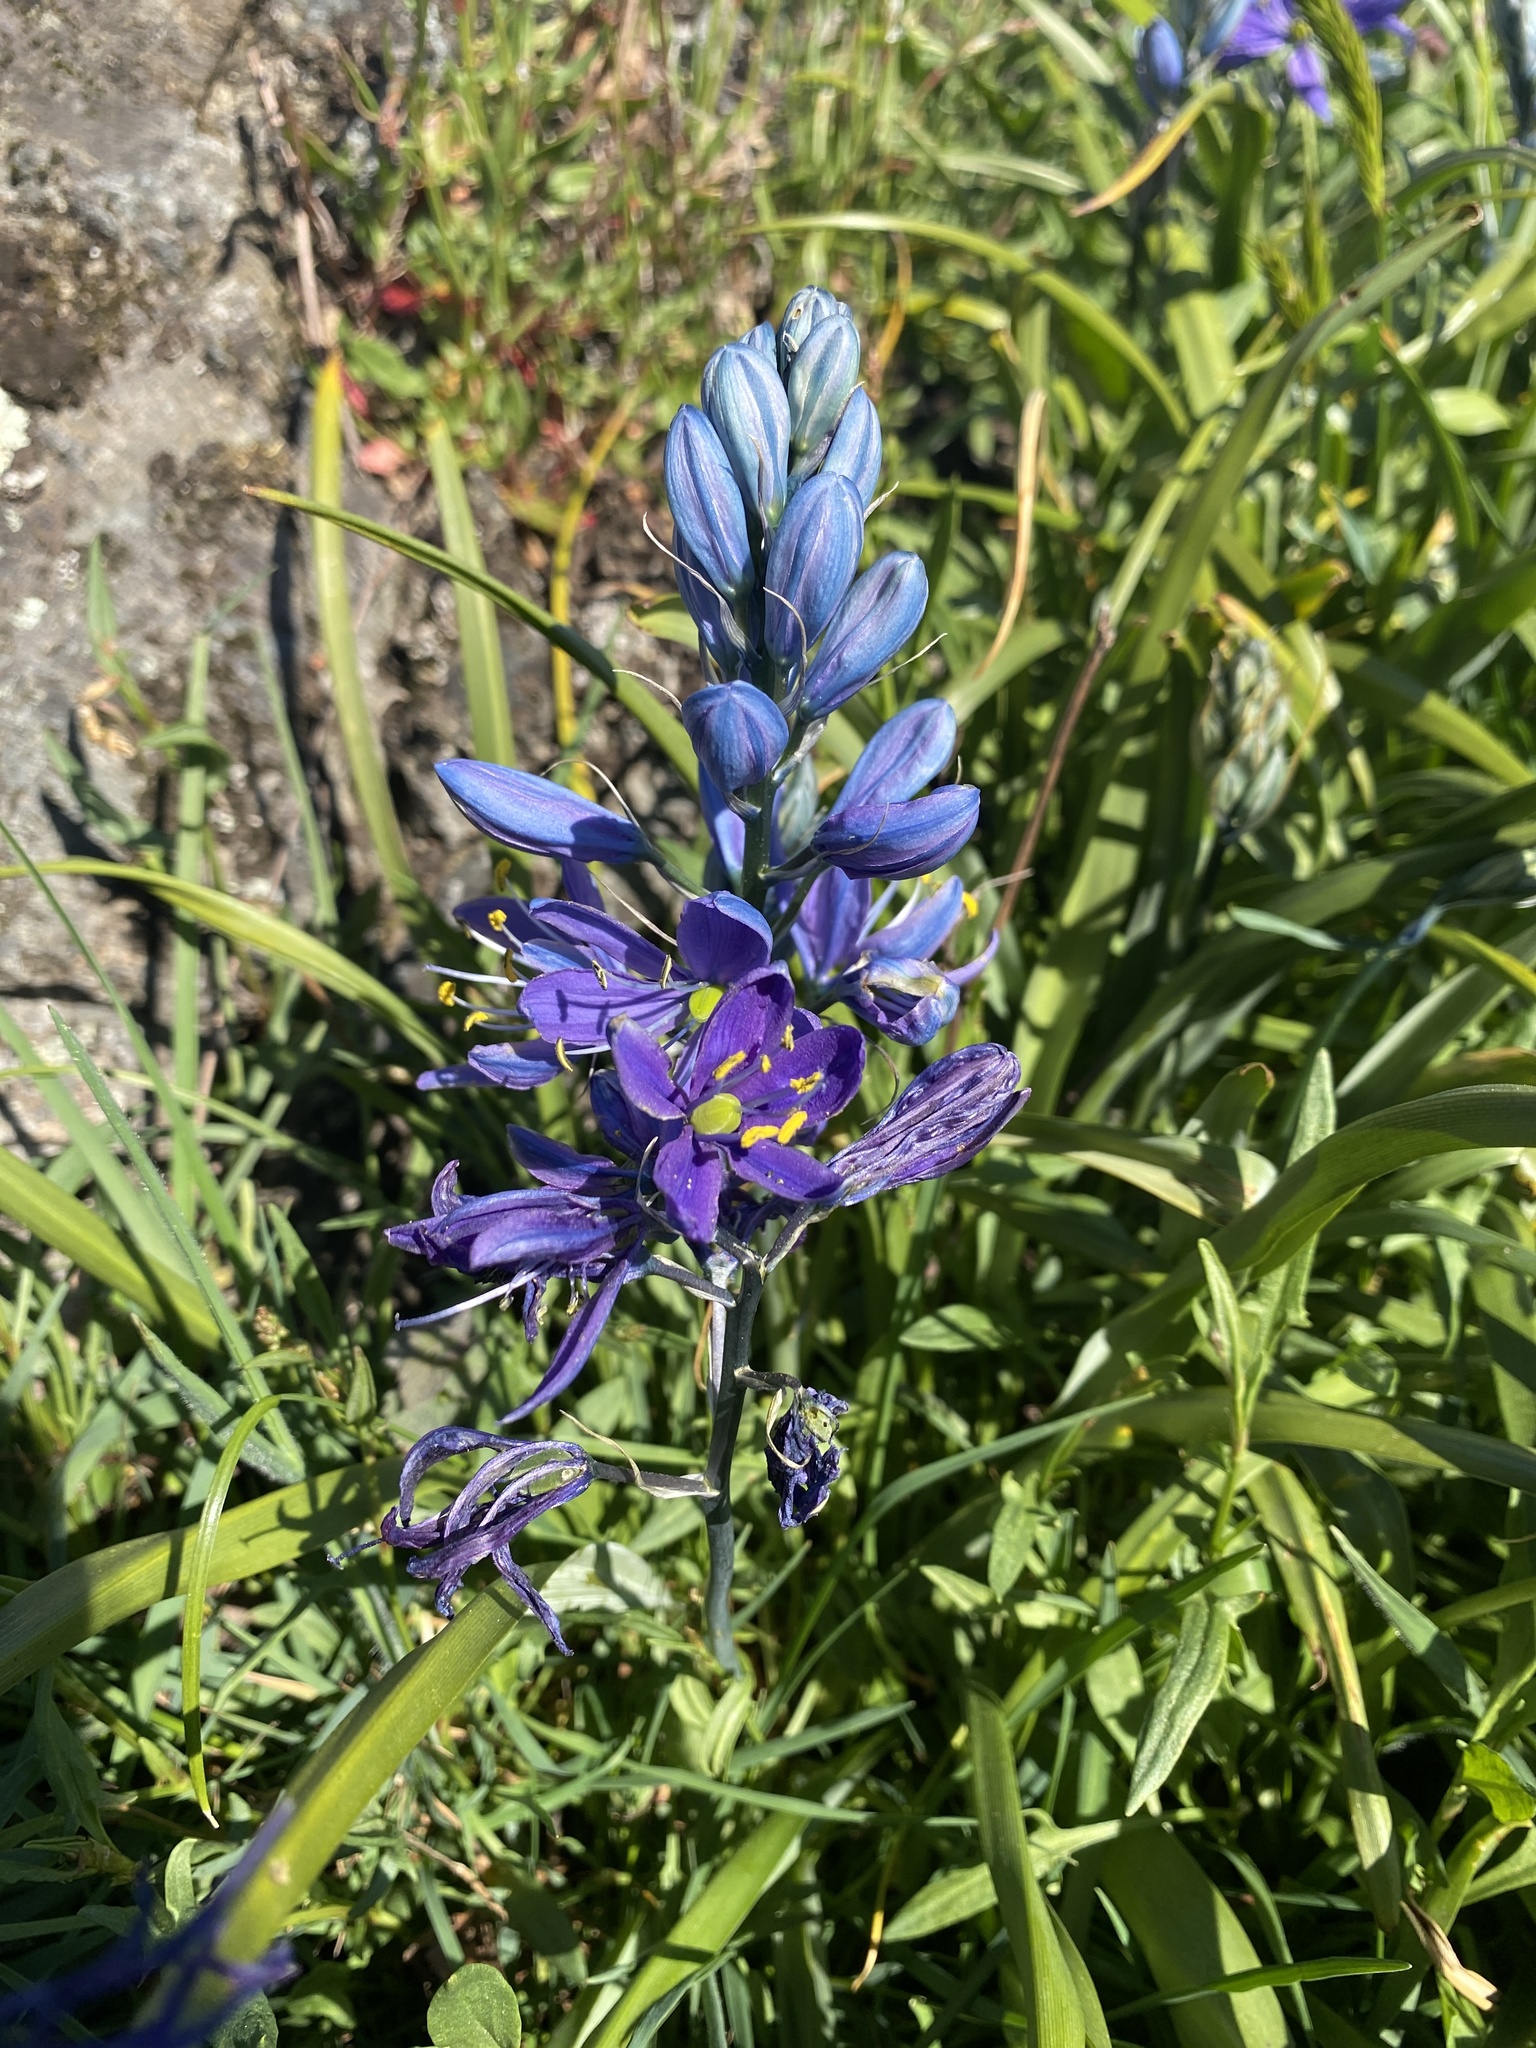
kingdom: Plantae
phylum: Tracheophyta
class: Liliopsida
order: Asparagales
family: Asparagaceae
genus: Camassia
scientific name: Camassia quamash
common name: Common camas
